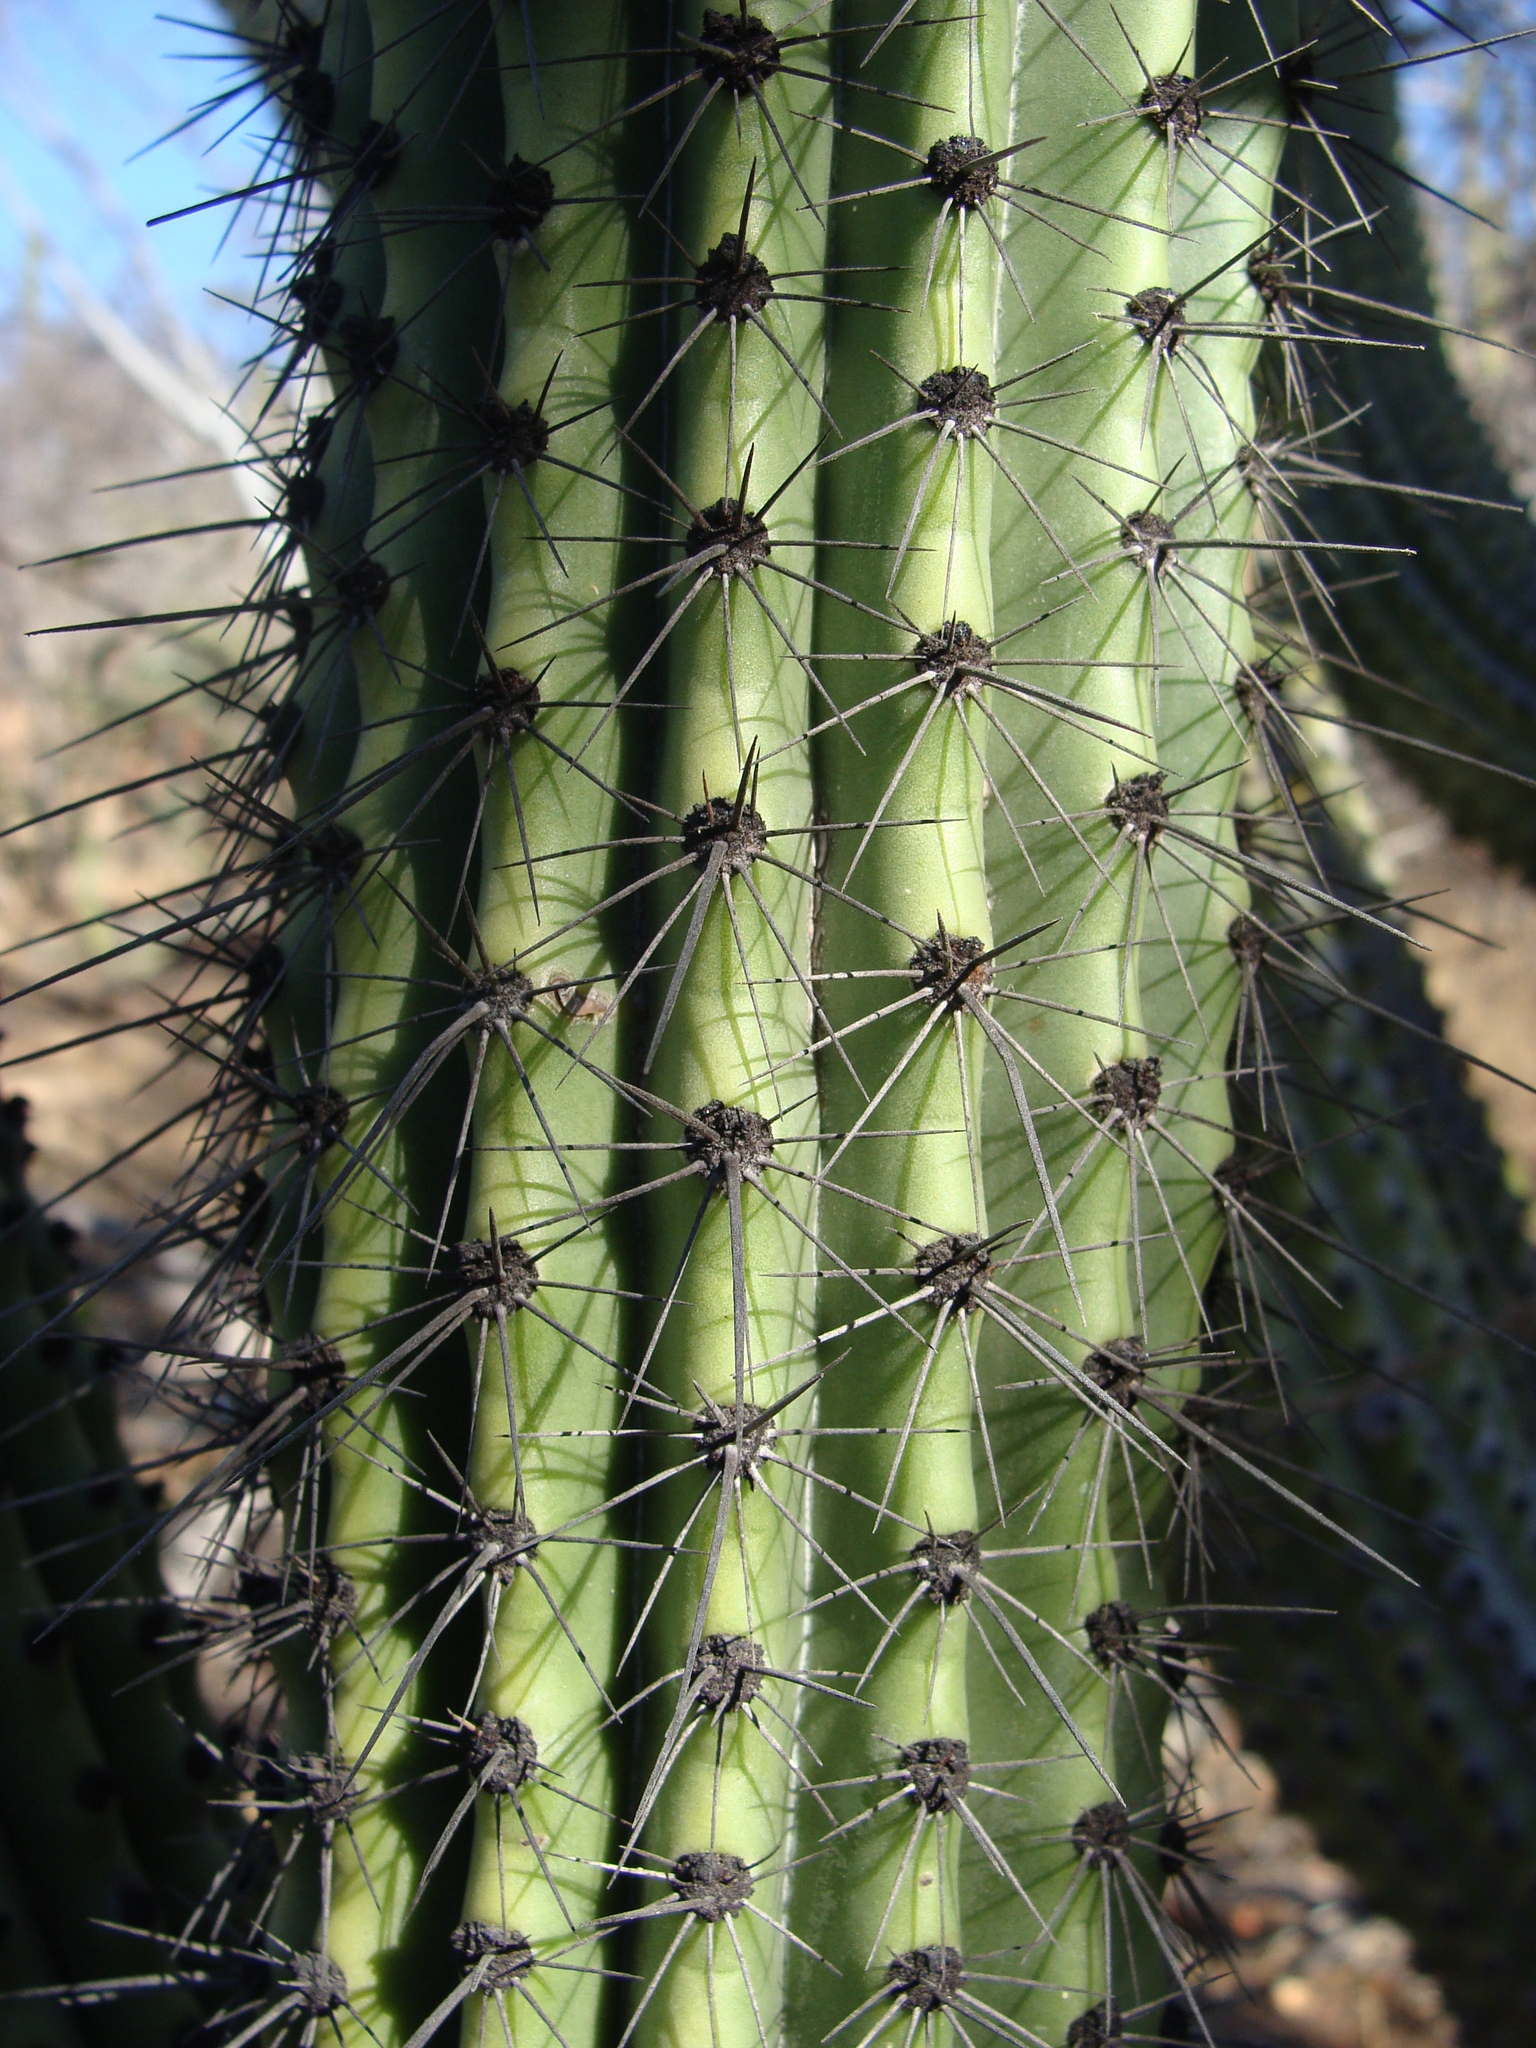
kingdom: Plantae
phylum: Tracheophyta
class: Magnoliopsida
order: Caryophyllales
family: Cactaceae
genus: Stenocereus
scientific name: Stenocereus thurberi
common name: Organ pipe cactus
